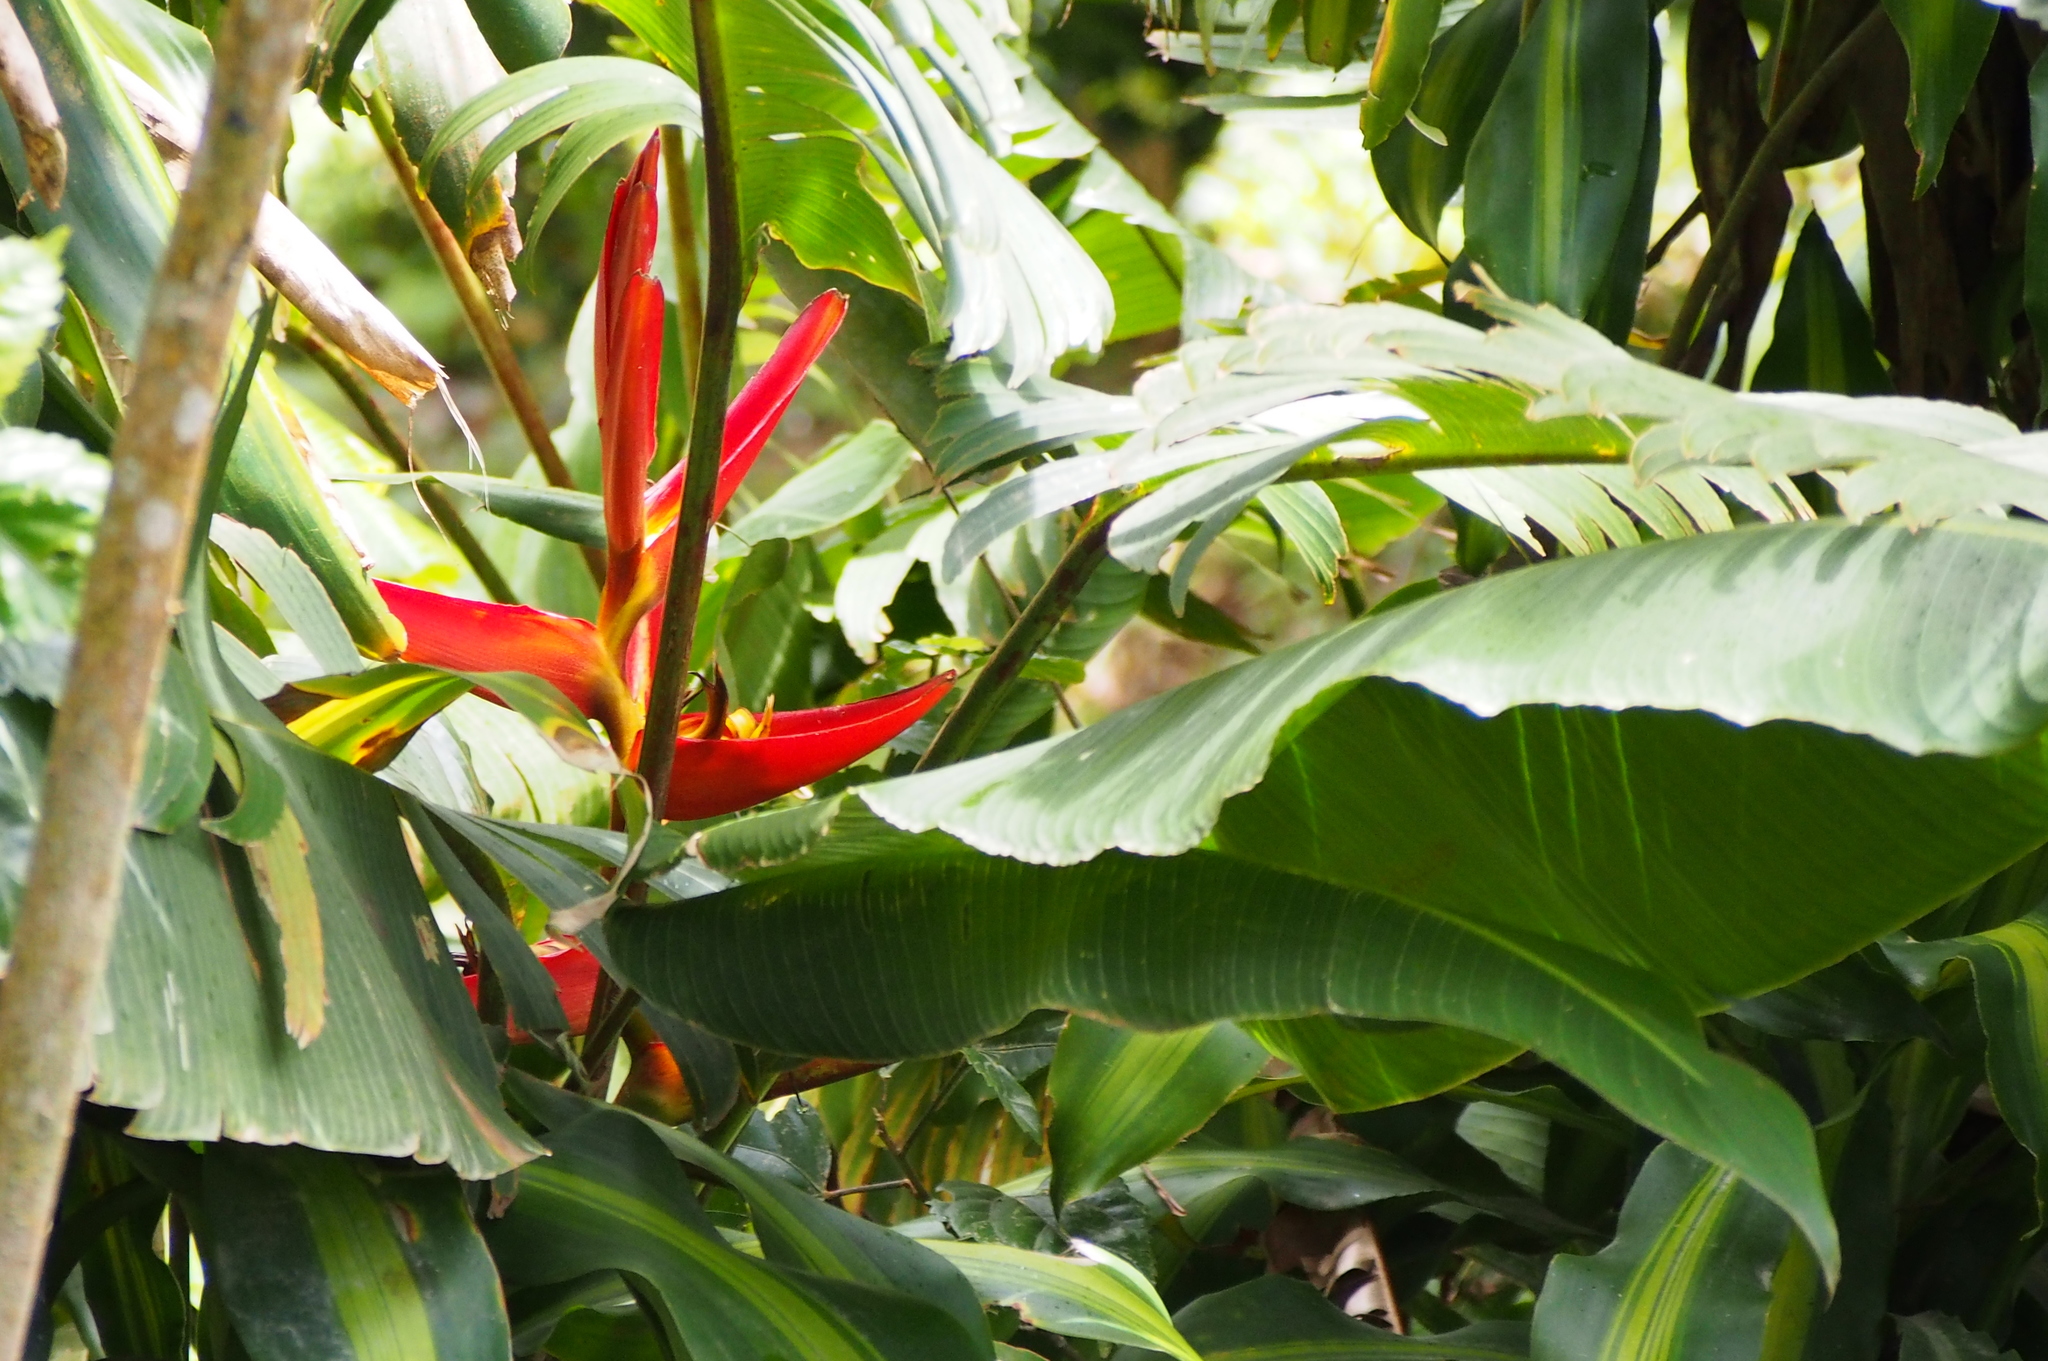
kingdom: Plantae
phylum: Tracheophyta
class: Liliopsida
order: Zingiberales
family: Heliconiaceae
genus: Heliconia
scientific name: Heliconia monteverdensis
